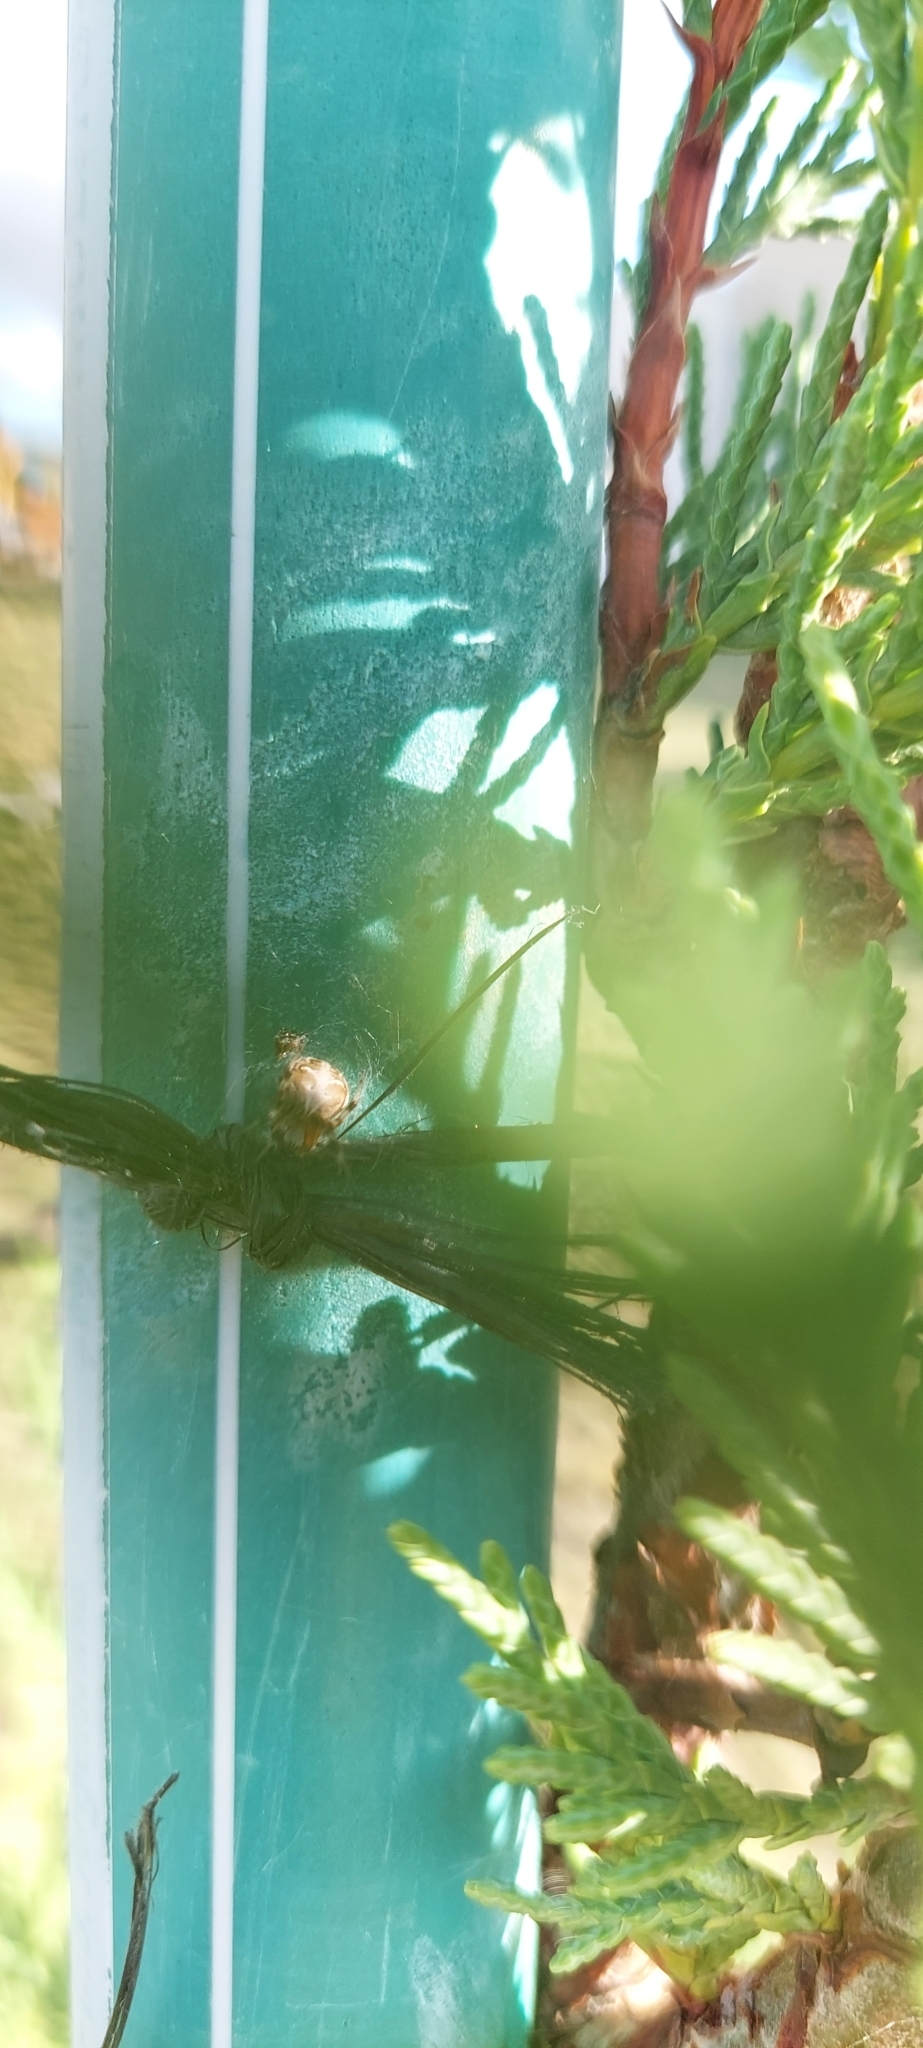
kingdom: Animalia
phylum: Arthropoda
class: Arachnida
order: Araneae
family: Araneidae
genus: Metepeira
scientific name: Metepeira
